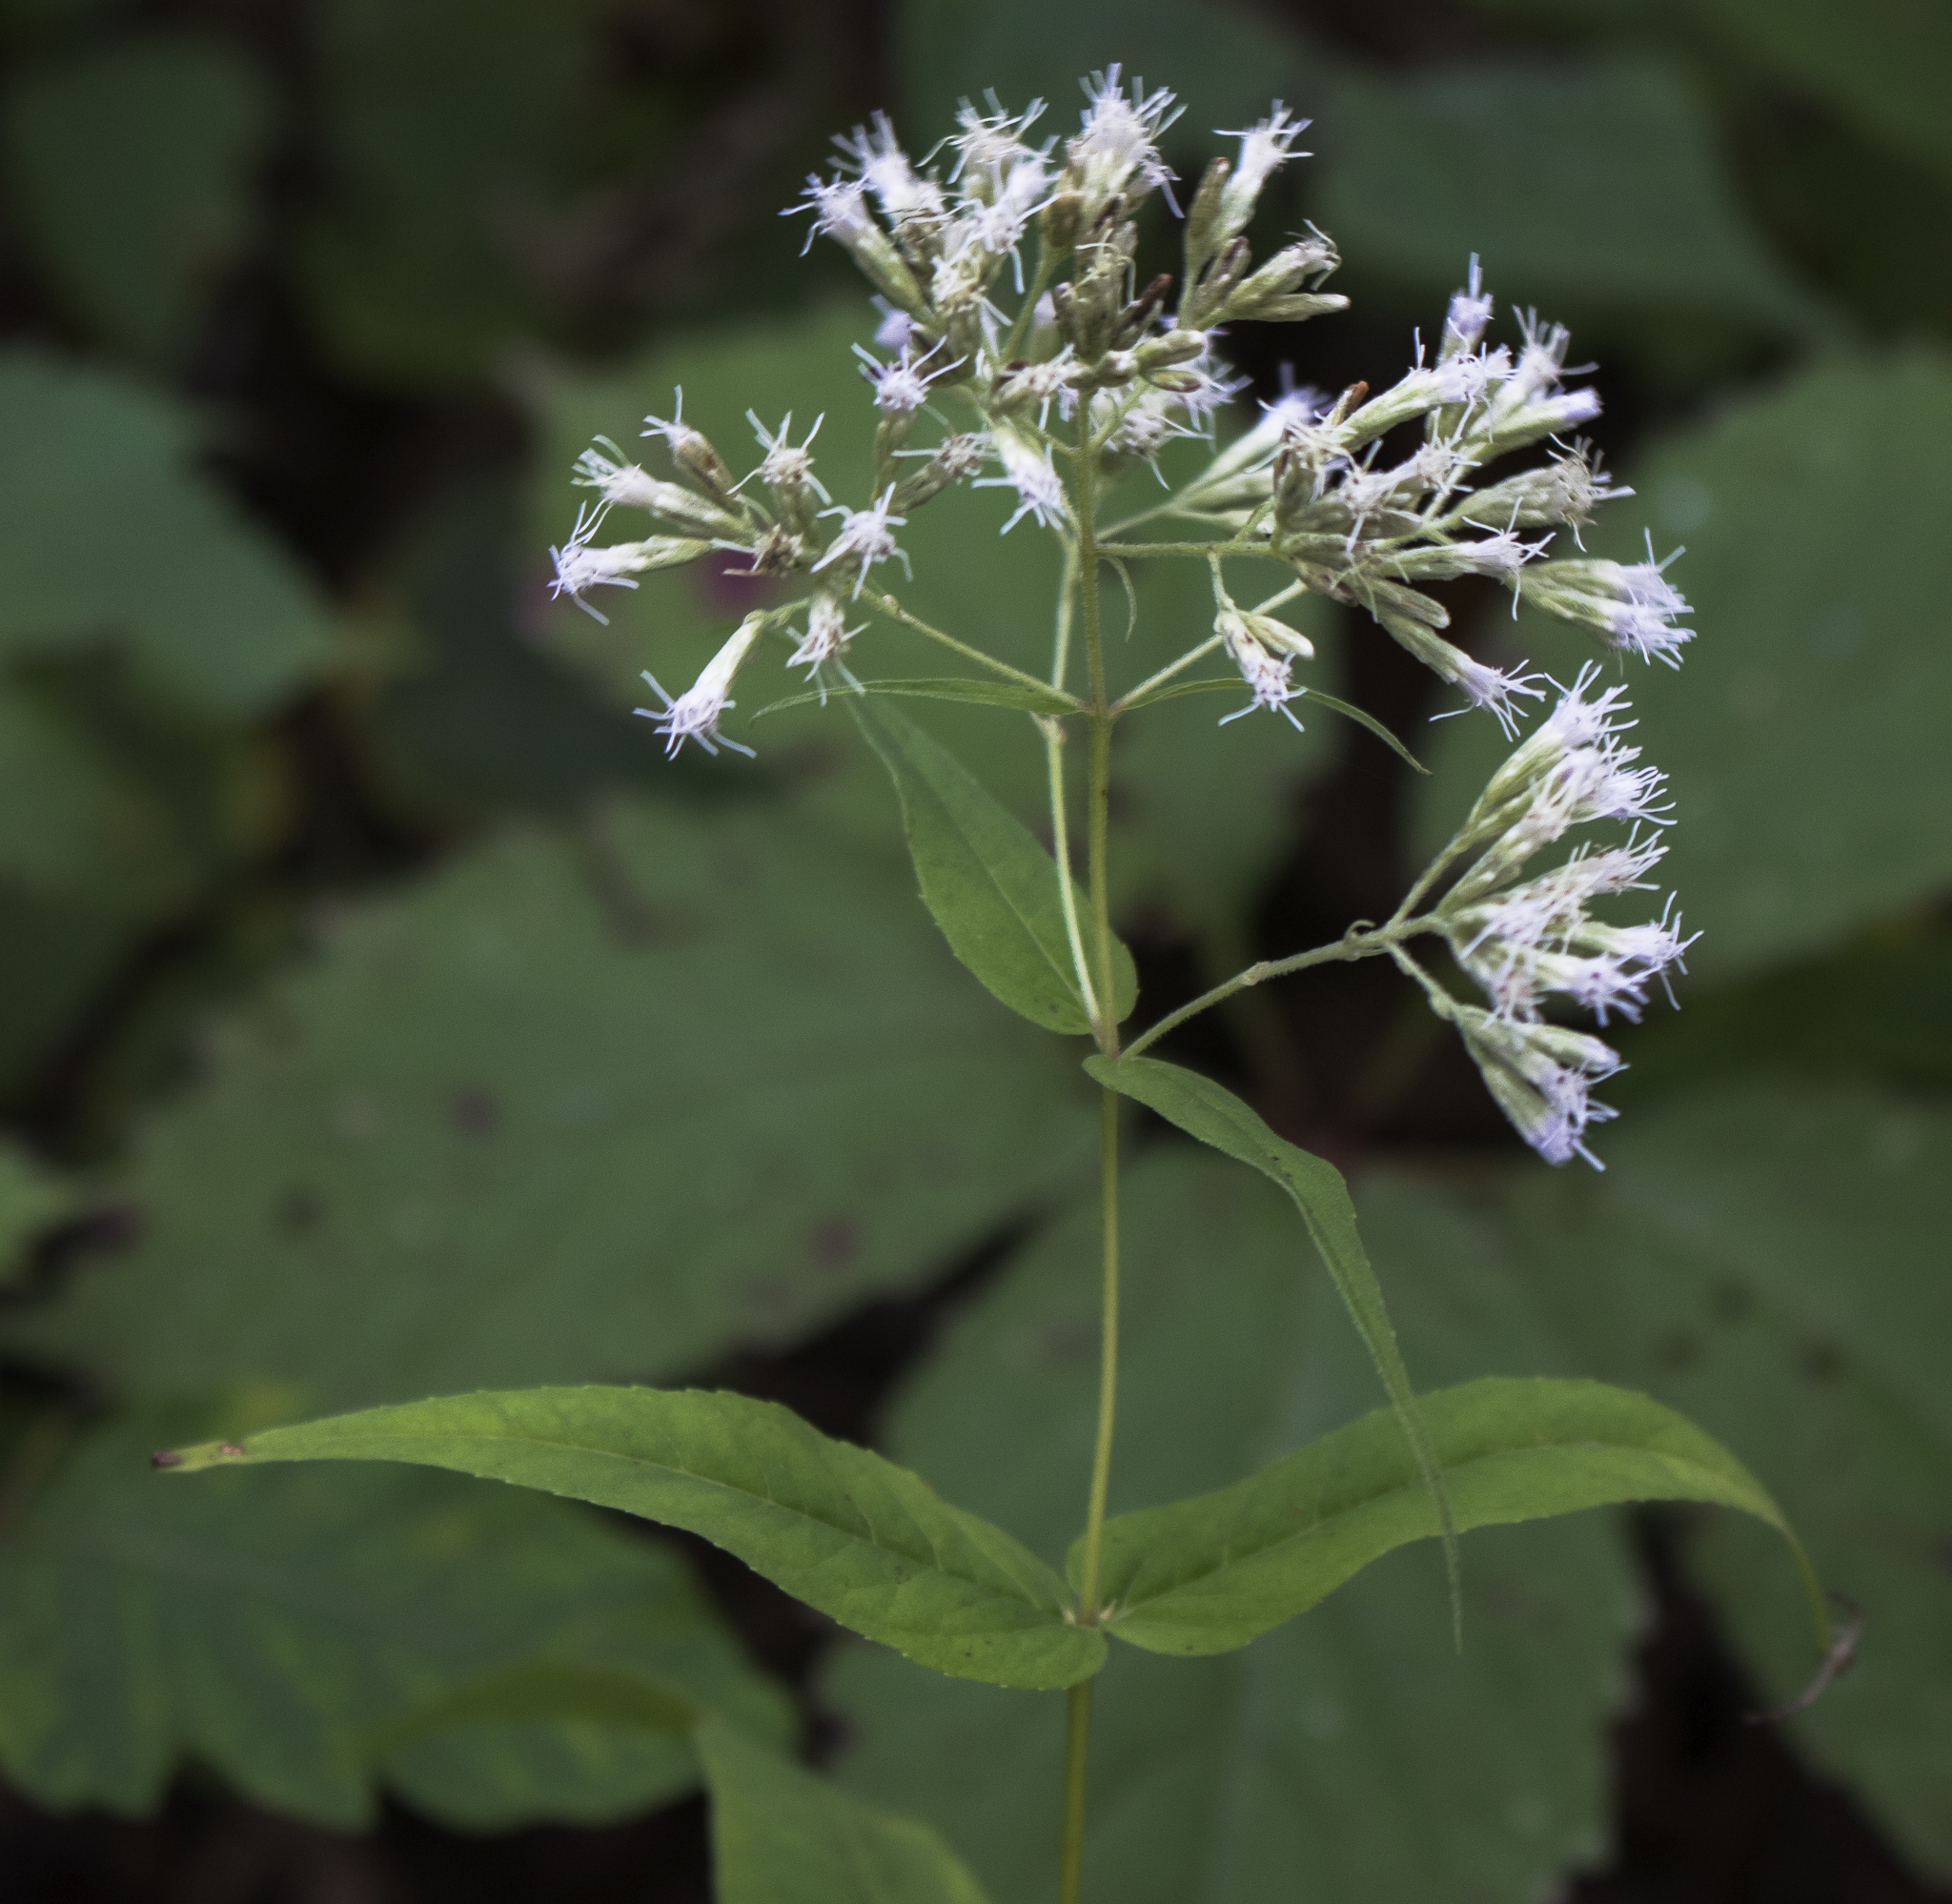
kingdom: Plantae
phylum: Tracheophyta
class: Magnoliopsida
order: Asterales
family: Asteraceae
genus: Eupatorium
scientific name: Eupatorium sessilifolium
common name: Upland boneset
